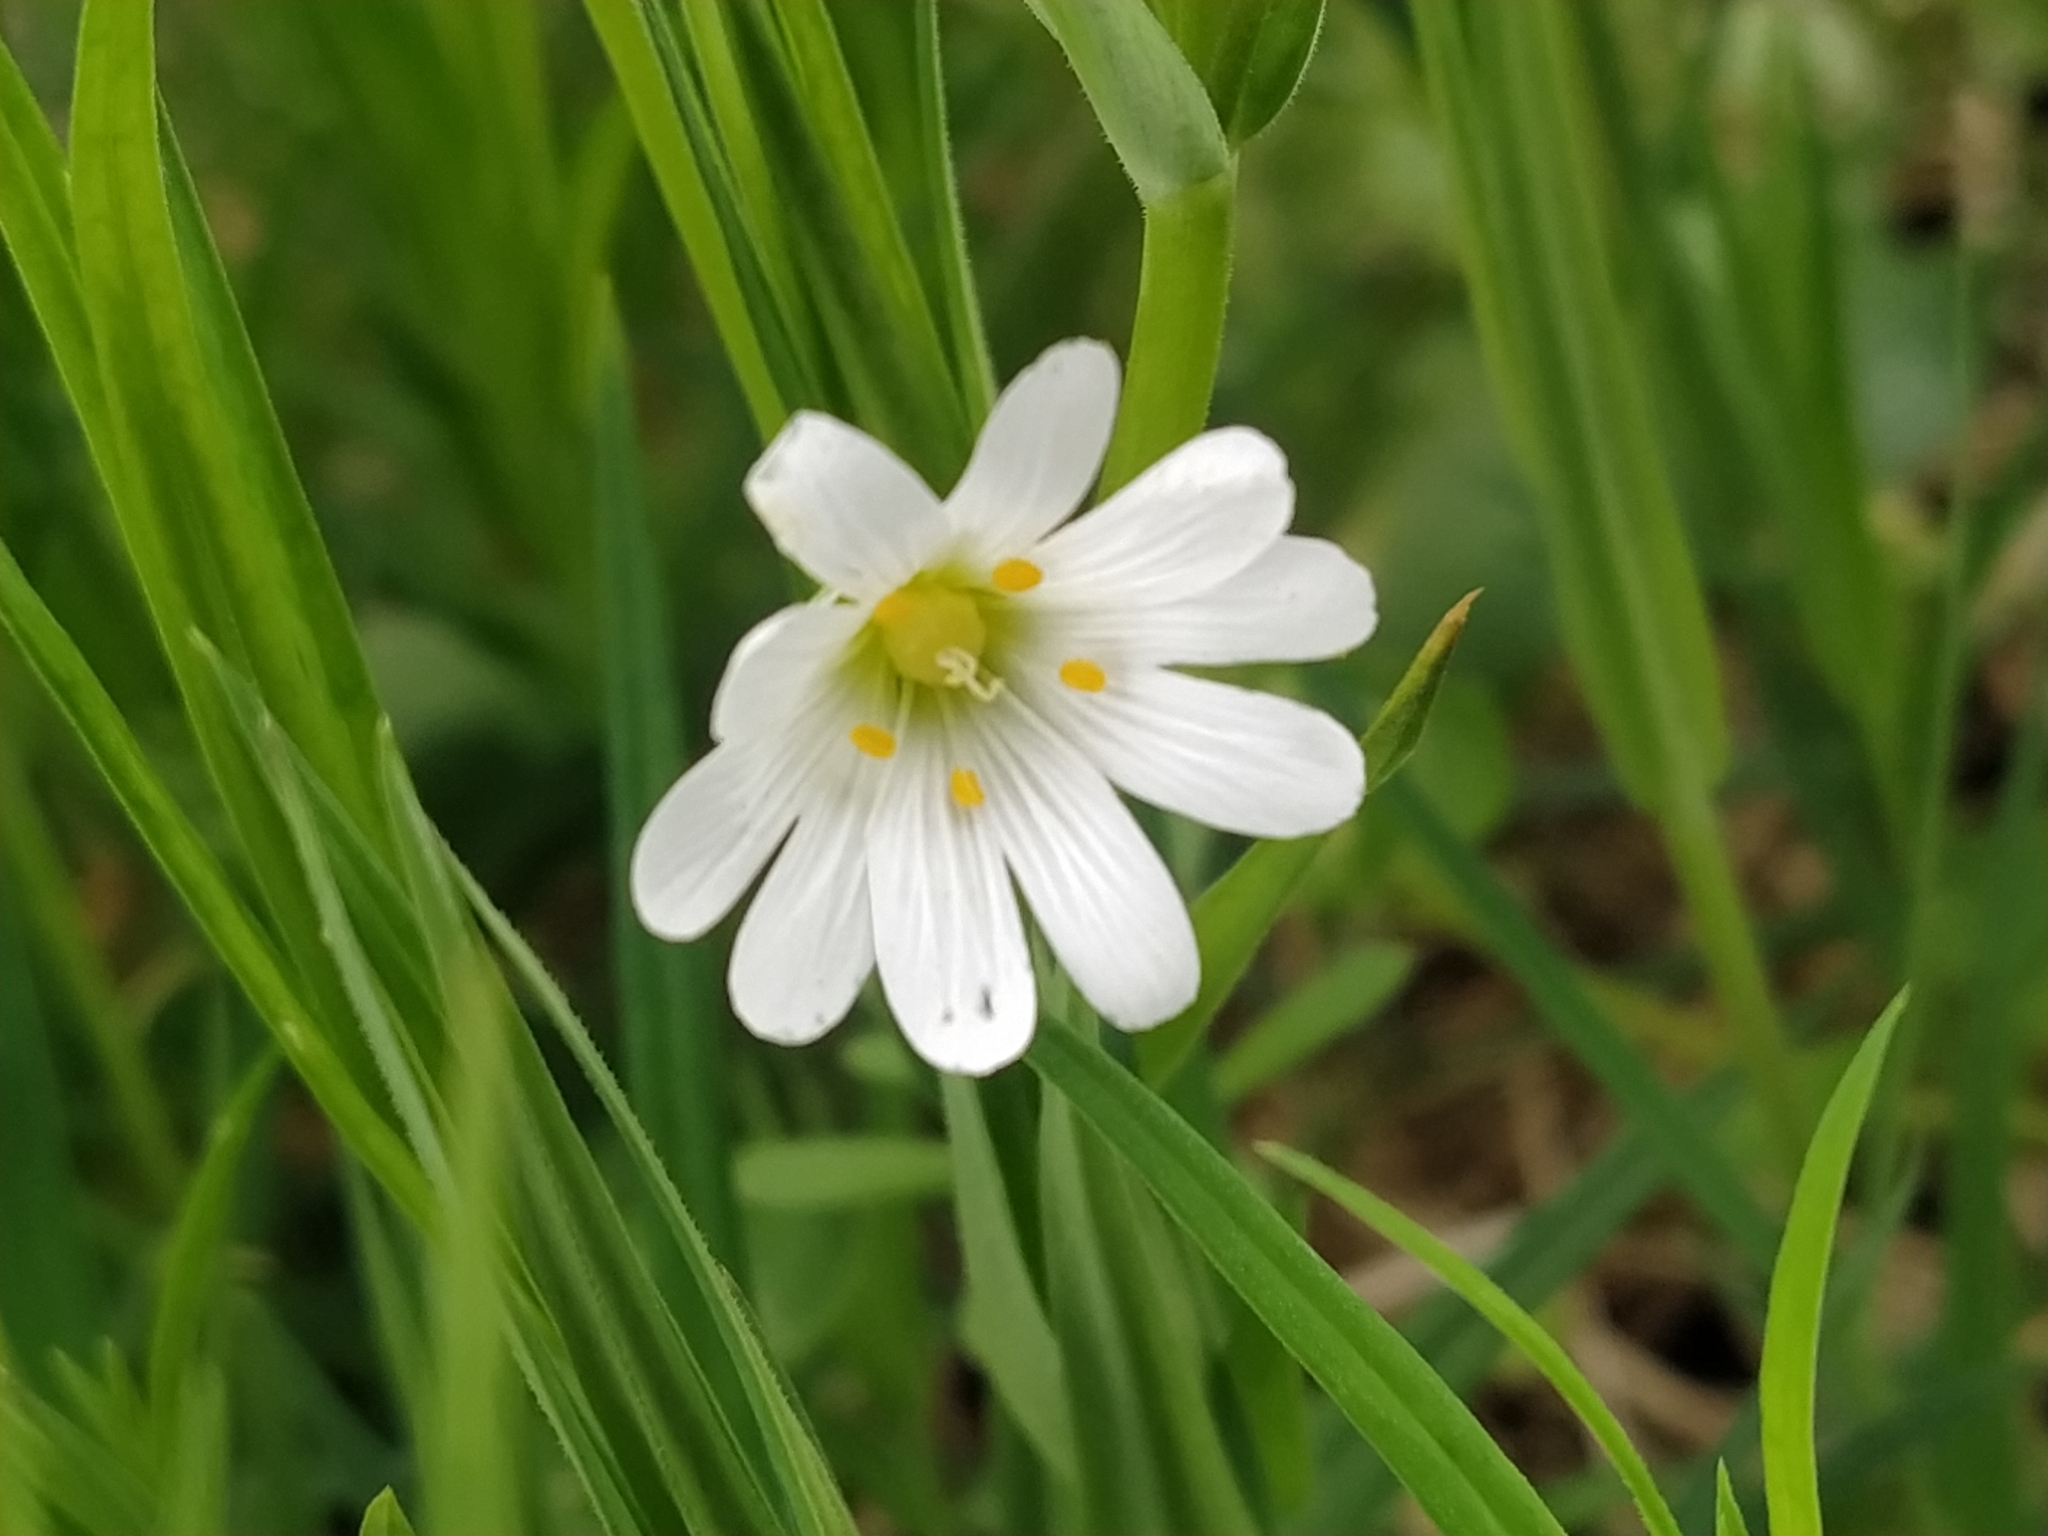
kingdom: Plantae
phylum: Tracheophyta
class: Magnoliopsida
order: Caryophyllales
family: Caryophyllaceae
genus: Rabelera
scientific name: Rabelera holostea
